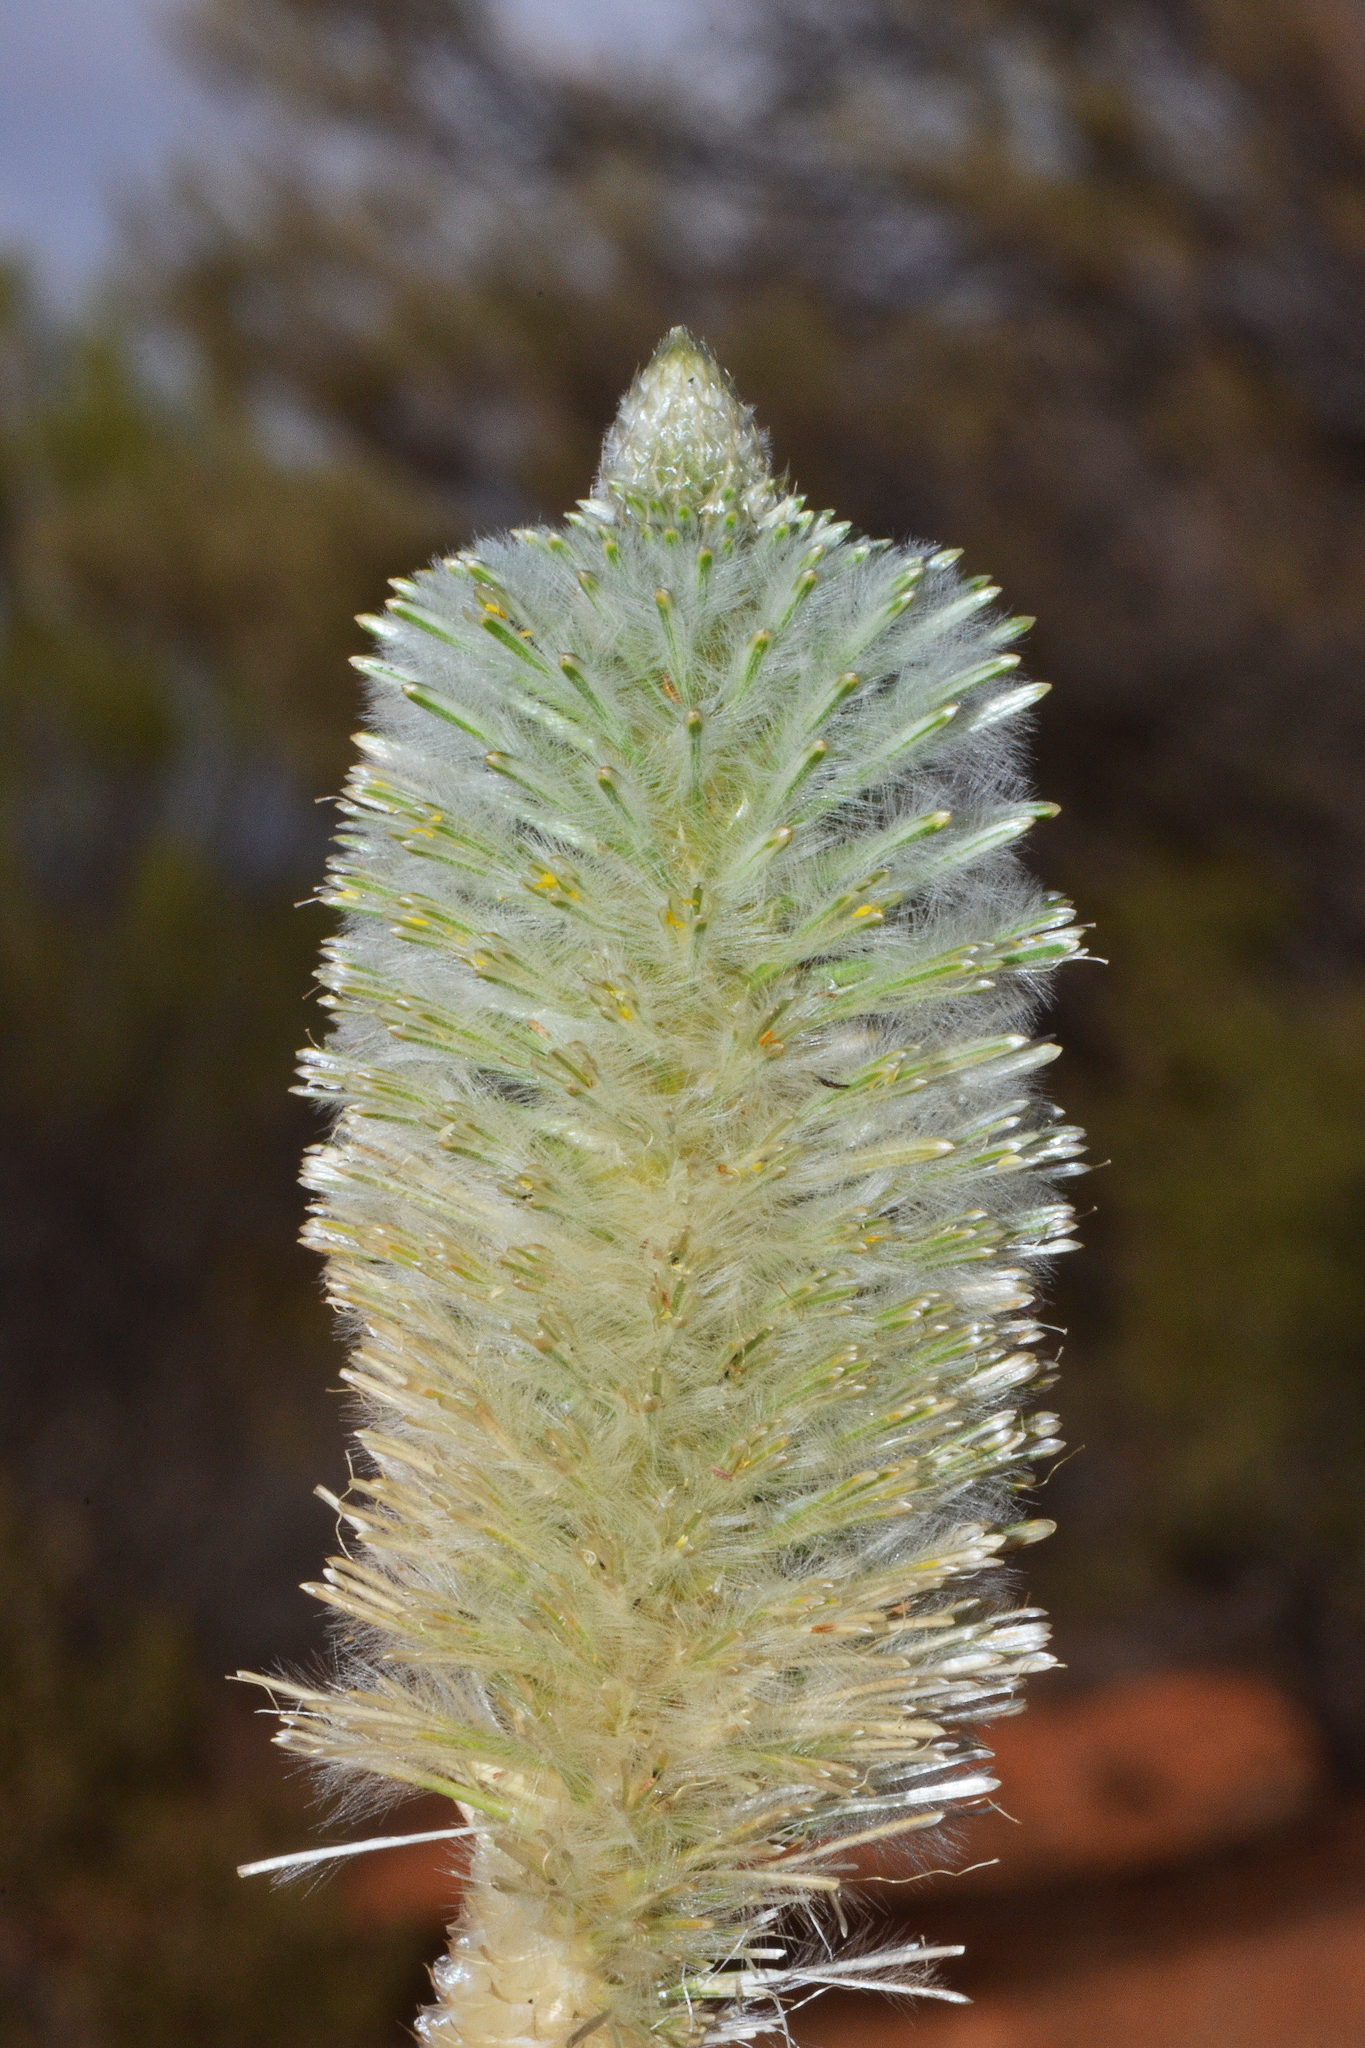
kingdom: Plantae
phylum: Tracheophyta
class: Magnoliopsida
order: Caryophyllales
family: Amaranthaceae
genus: Ptilotus
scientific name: Ptilotus xerophilus
